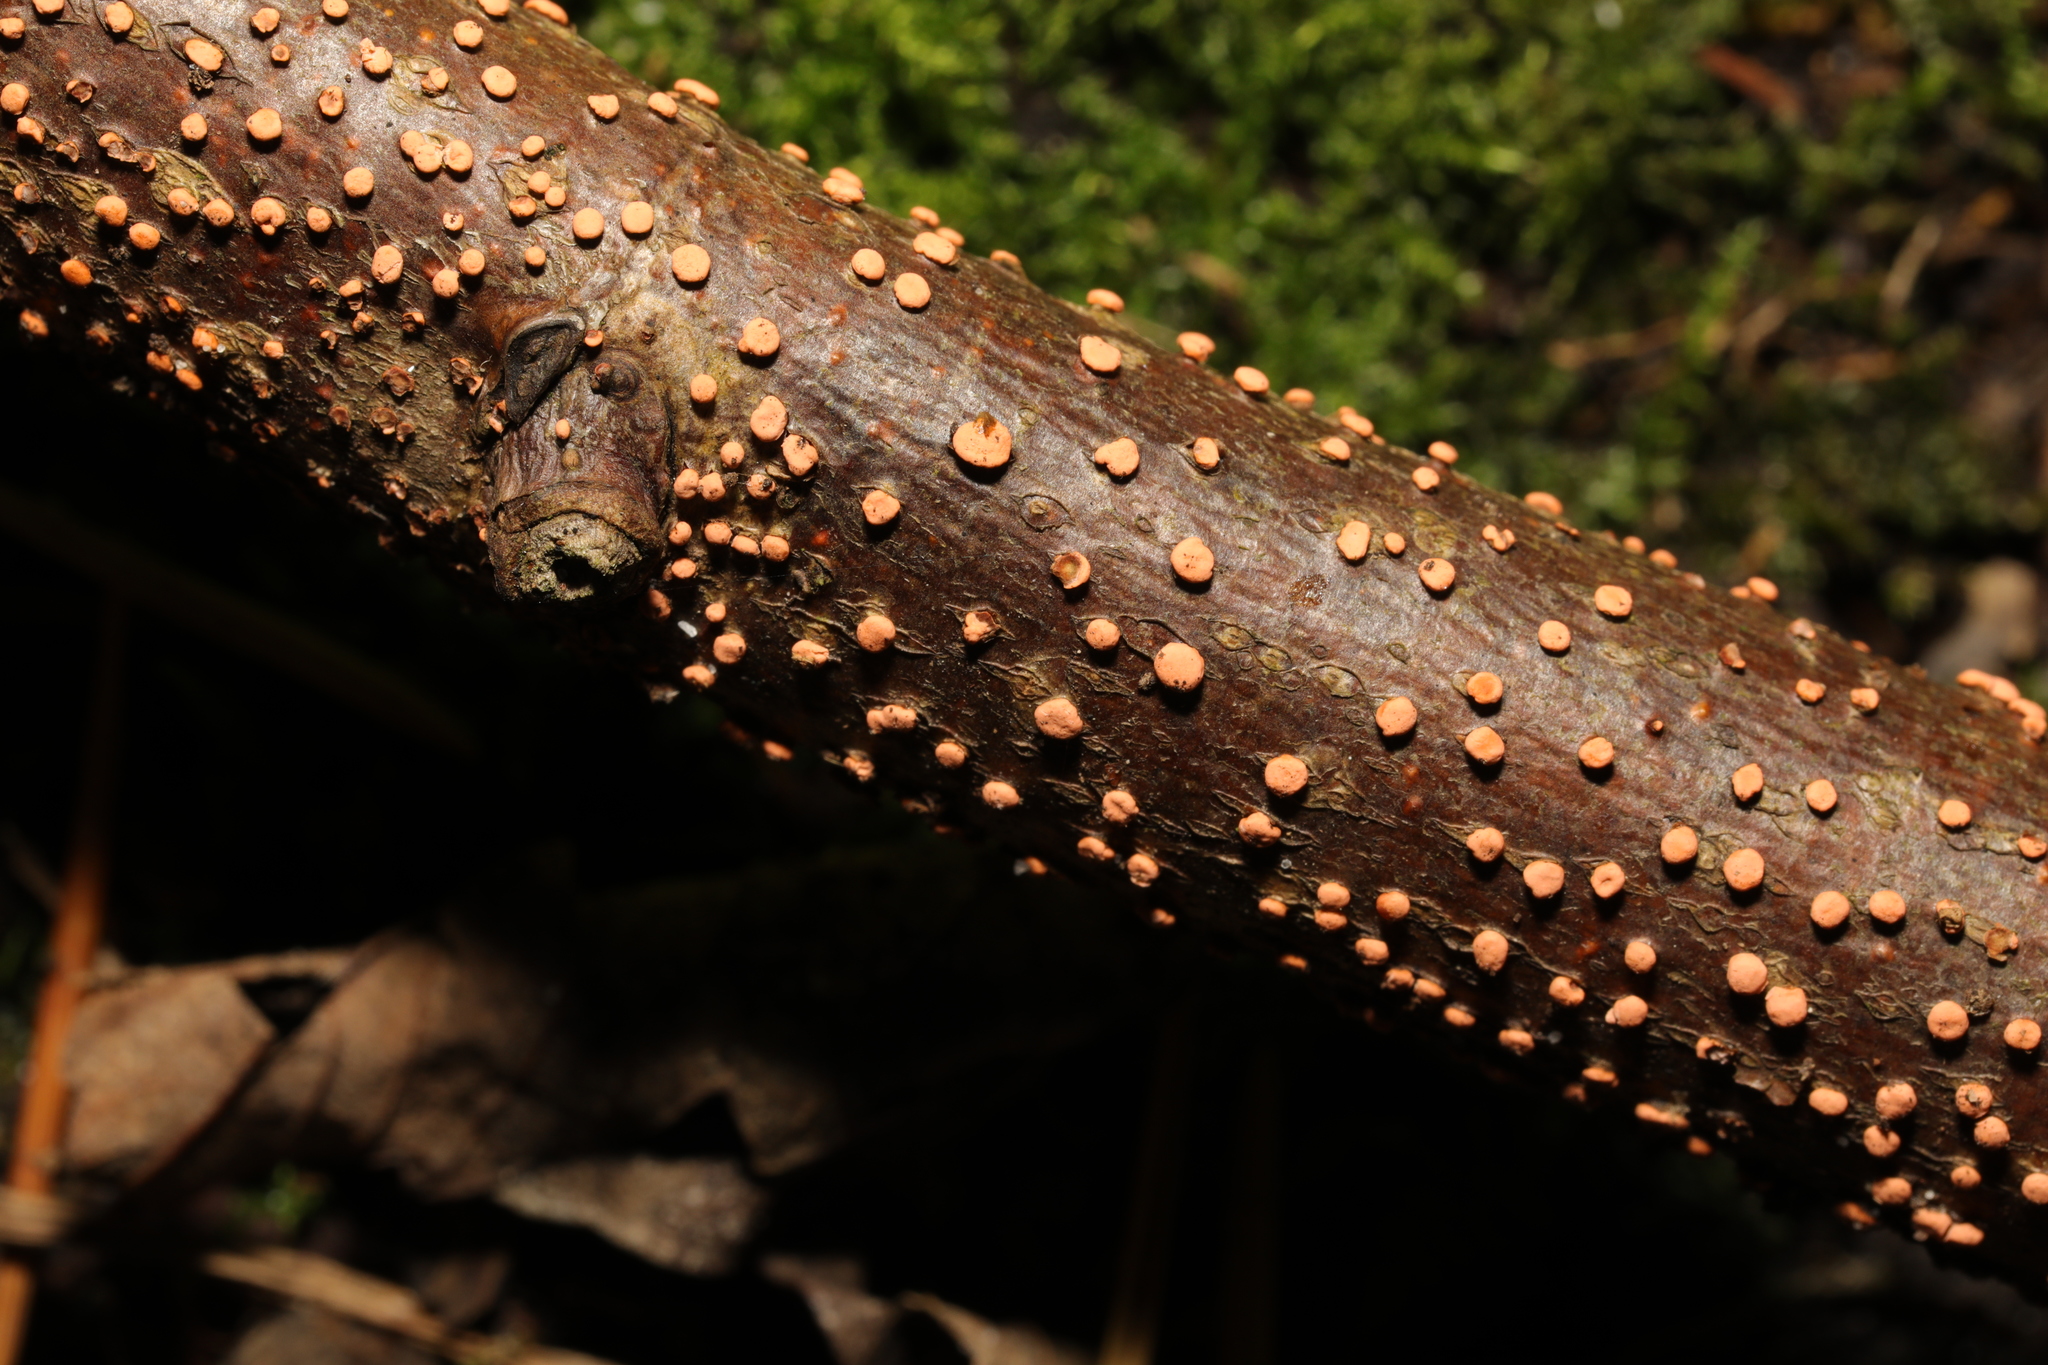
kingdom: Fungi
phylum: Ascomycota
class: Sordariomycetes
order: Hypocreales
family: Nectriaceae
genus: Nectria
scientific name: Nectria cinnabarina
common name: Coral spot
